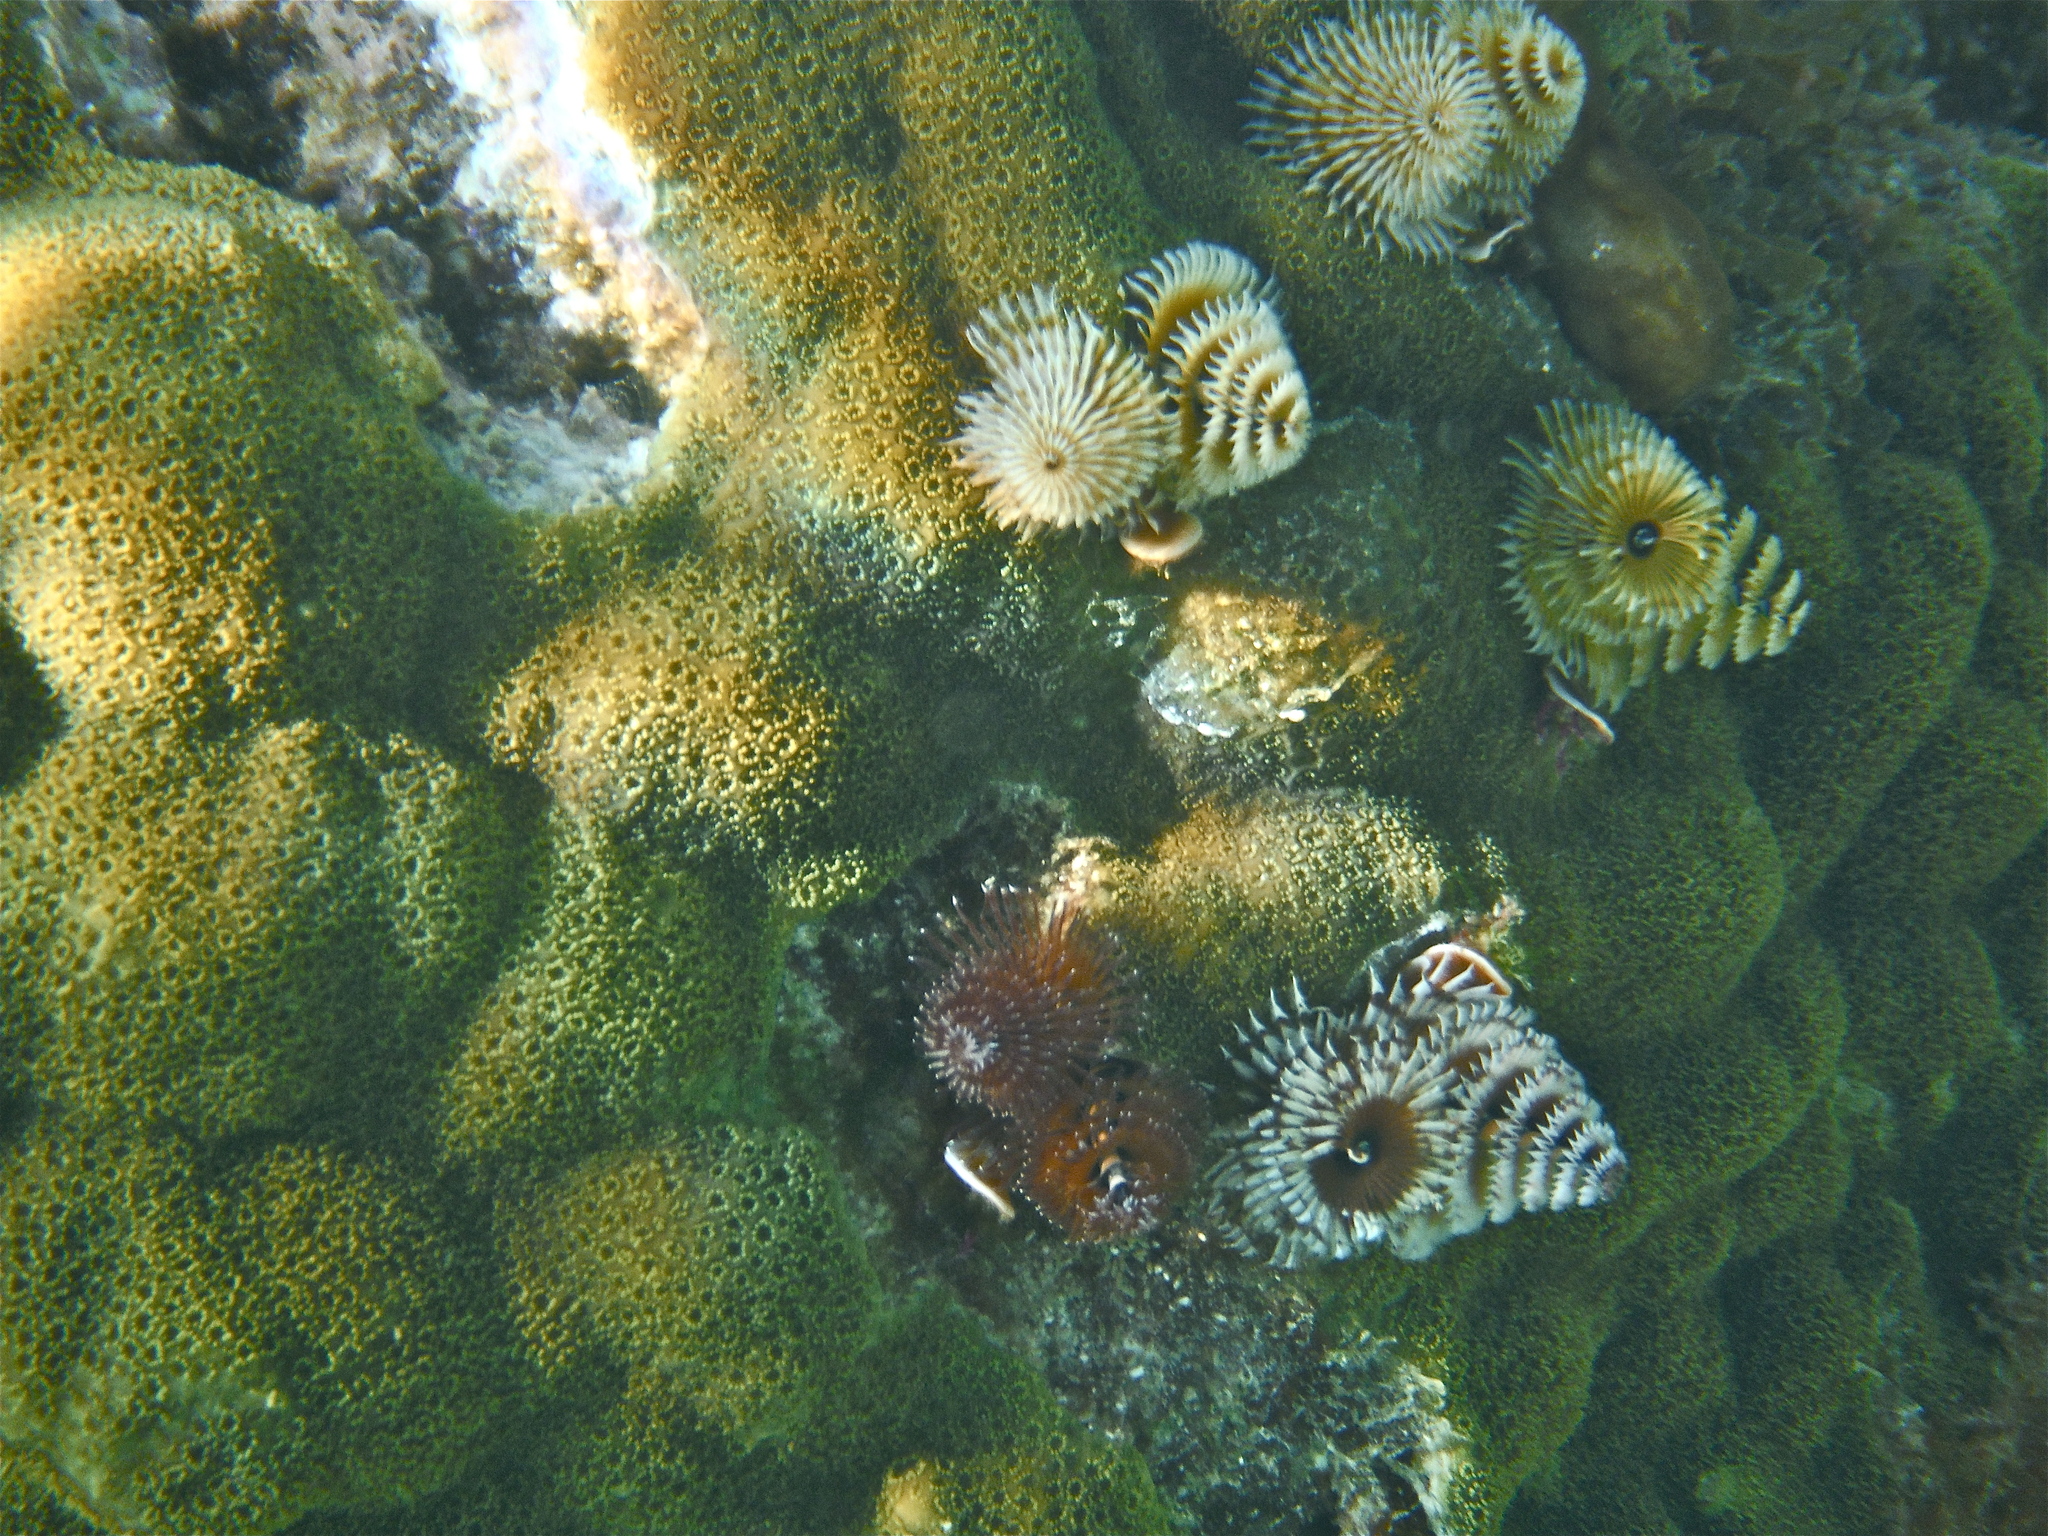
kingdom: Animalia
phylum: Annelida
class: Polychaeta
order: Sabellida
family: Serpulidae
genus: Spirobranchus
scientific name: Spirobranchus giganteus
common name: Christmas tree worm
